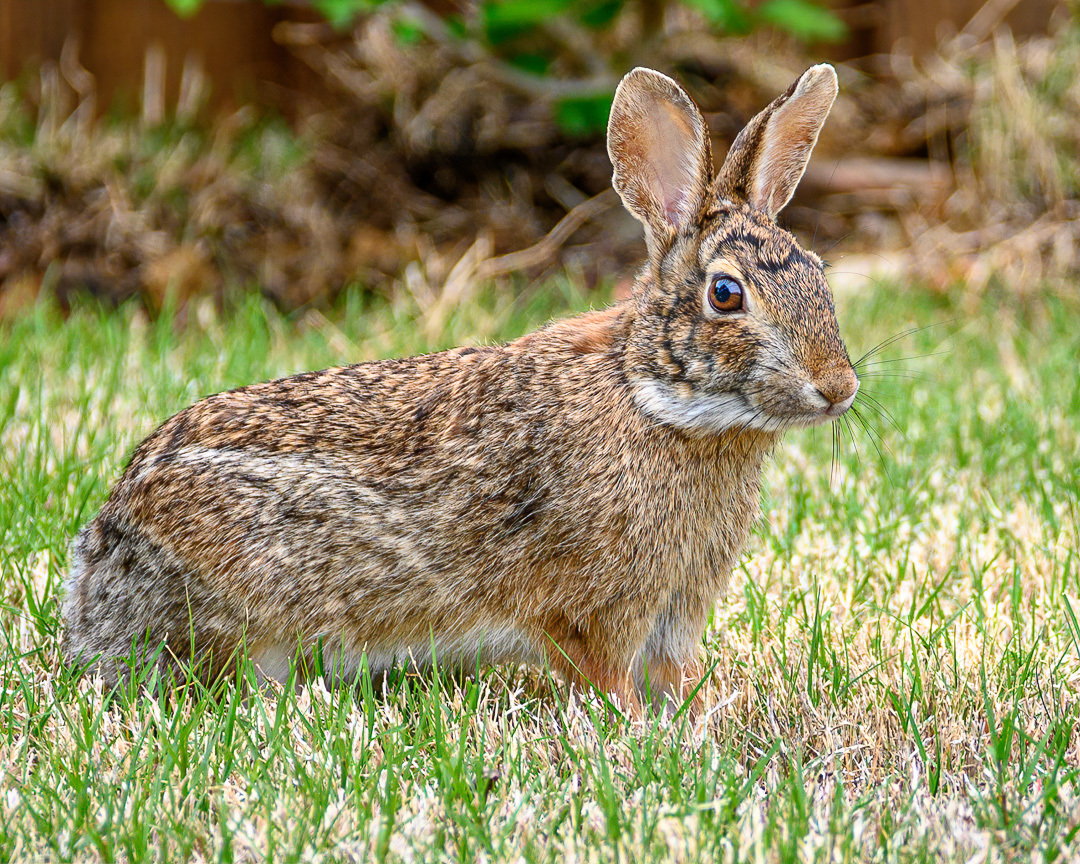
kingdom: Animalia
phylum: Chordata
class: Mammalia
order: Lagomorpha
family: Leporidae
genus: Sylvilagus
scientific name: Sylvilagus floridanus
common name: Eastern cottontail
